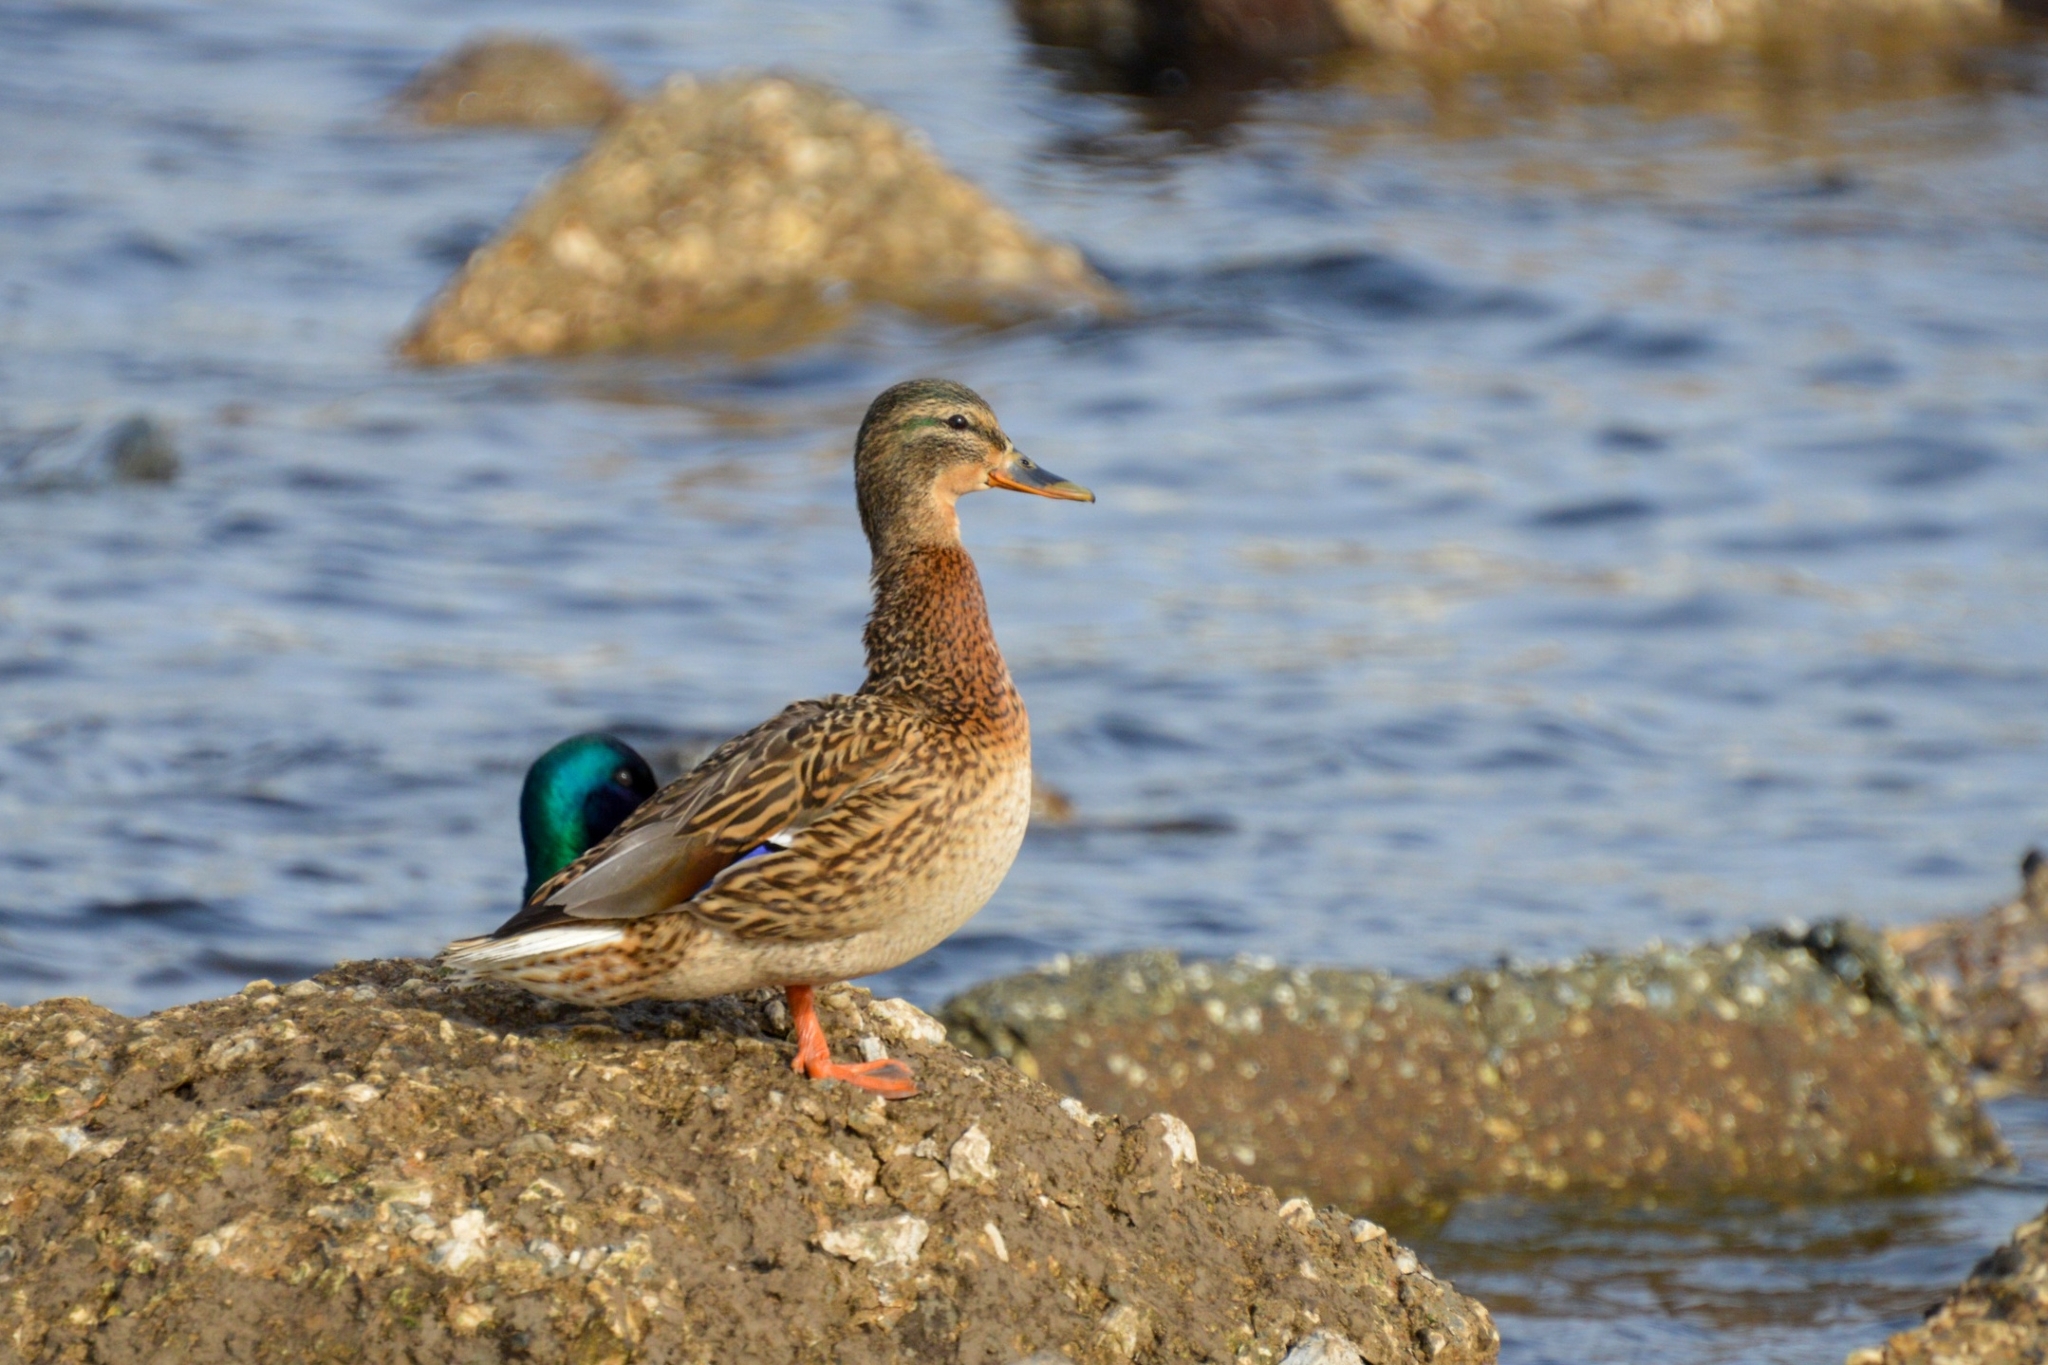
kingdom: Animalia
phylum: Chordata
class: Aves
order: Anseriformes
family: Anatidae
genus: Anas
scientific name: Anas platyrhynchos
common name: Mallard
